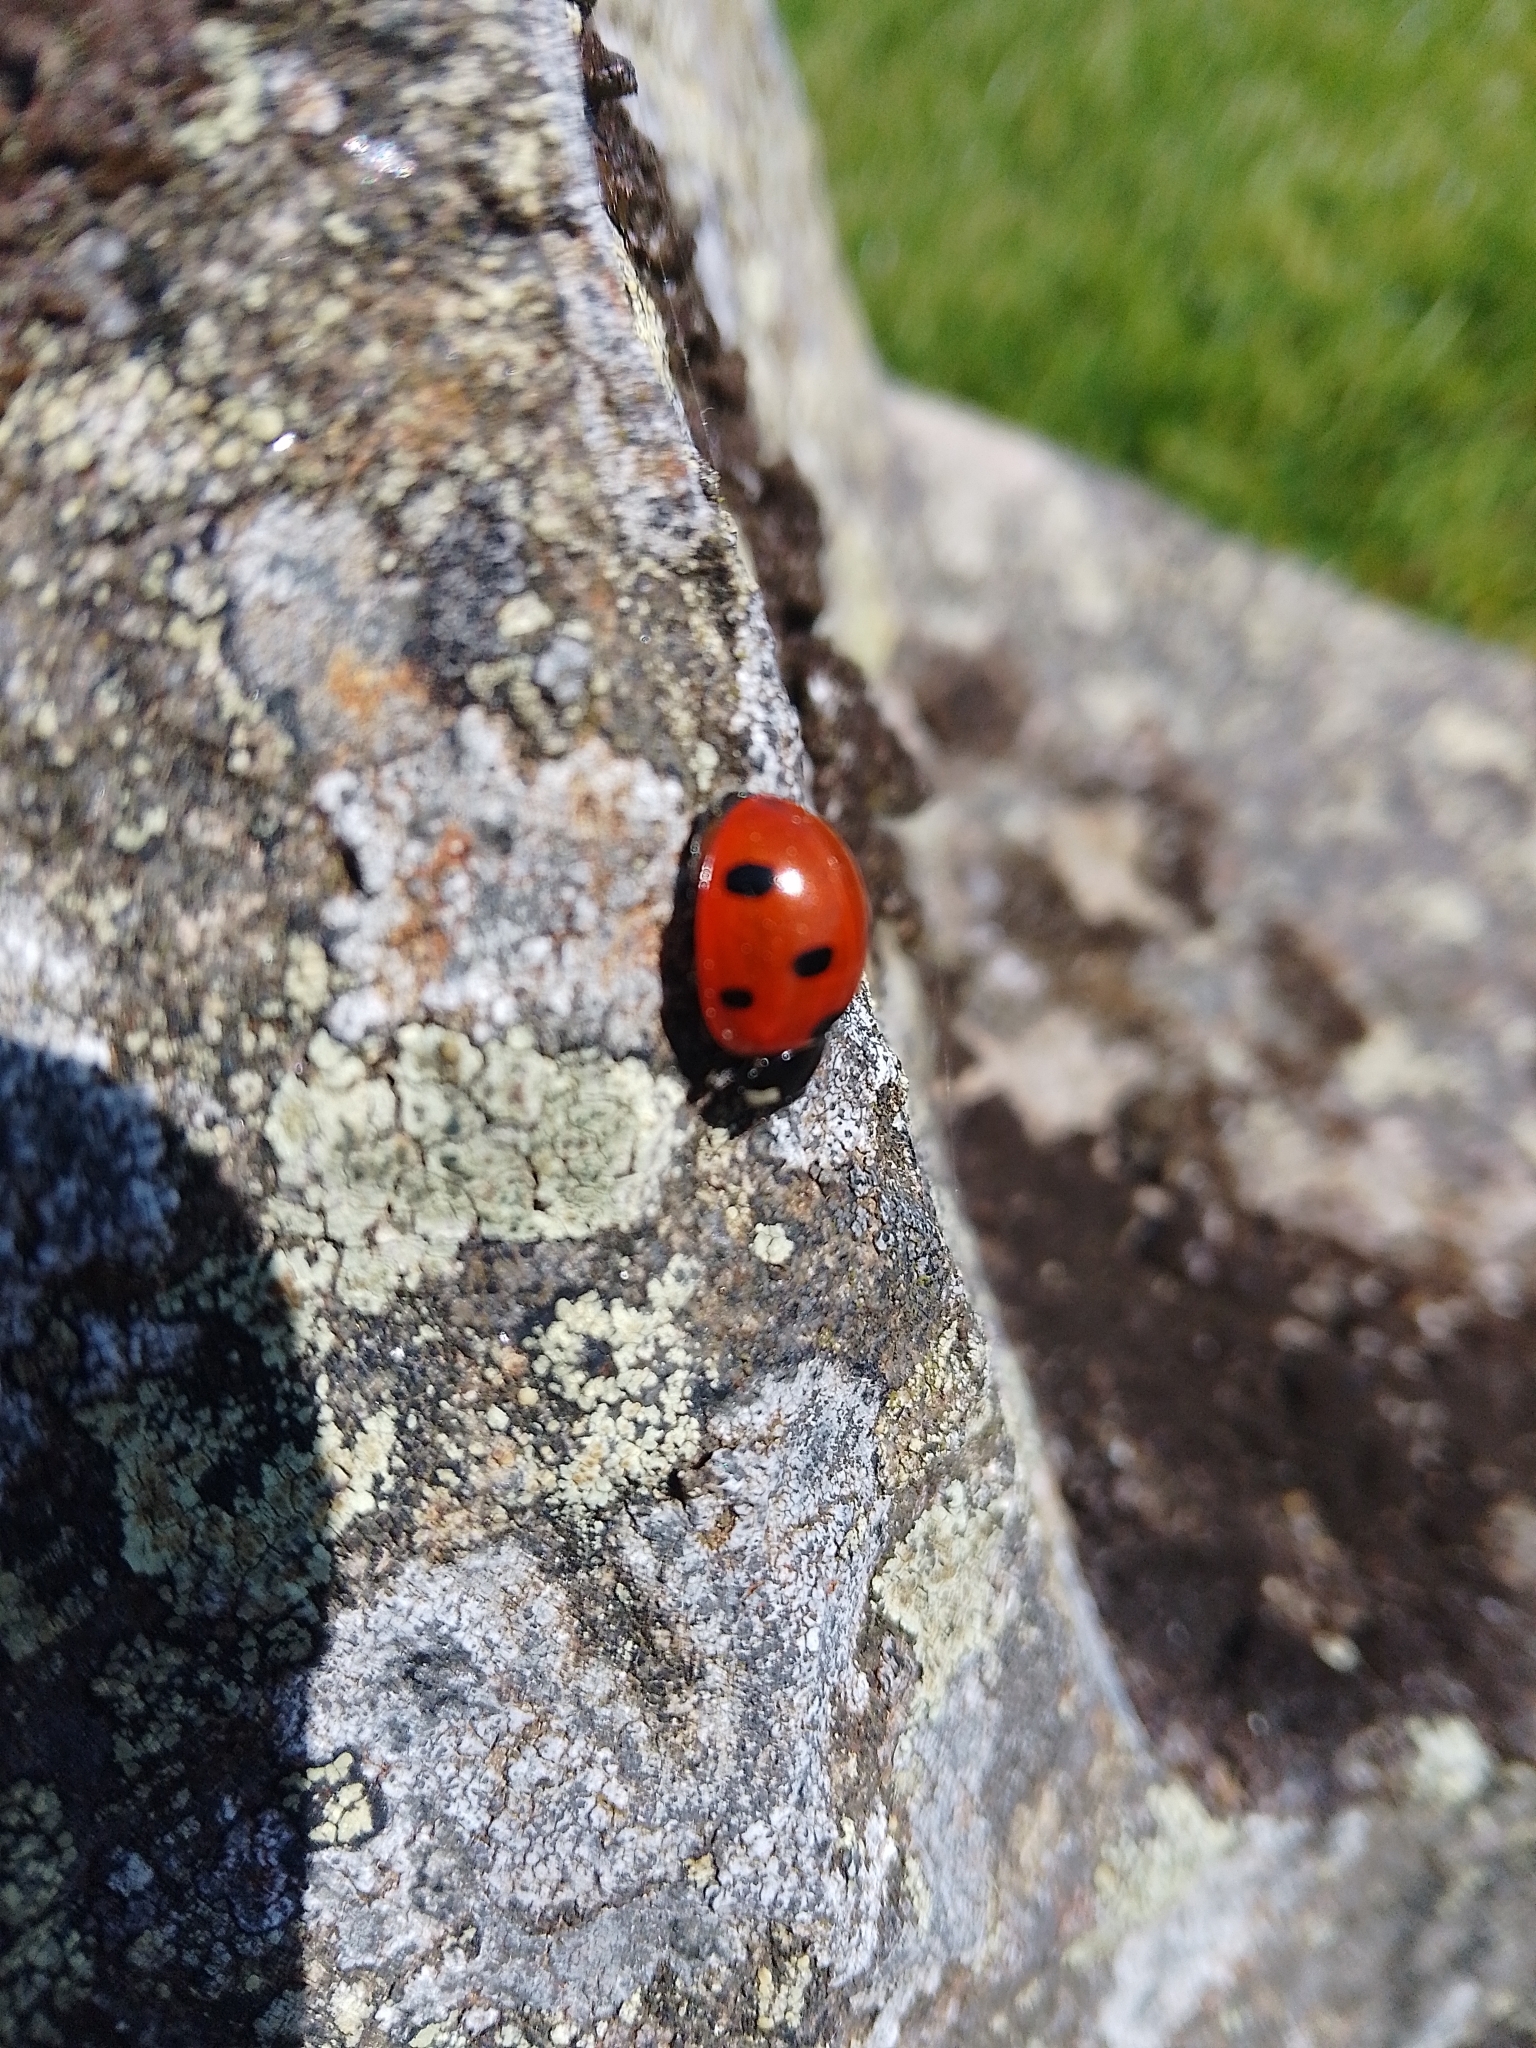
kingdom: Animalia
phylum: Arthropoda
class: Insecta
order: Coleoptera
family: Coccinellidae
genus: Coccinella
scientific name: Coccinella septempunctata
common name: Sevenspotted lady beetle
